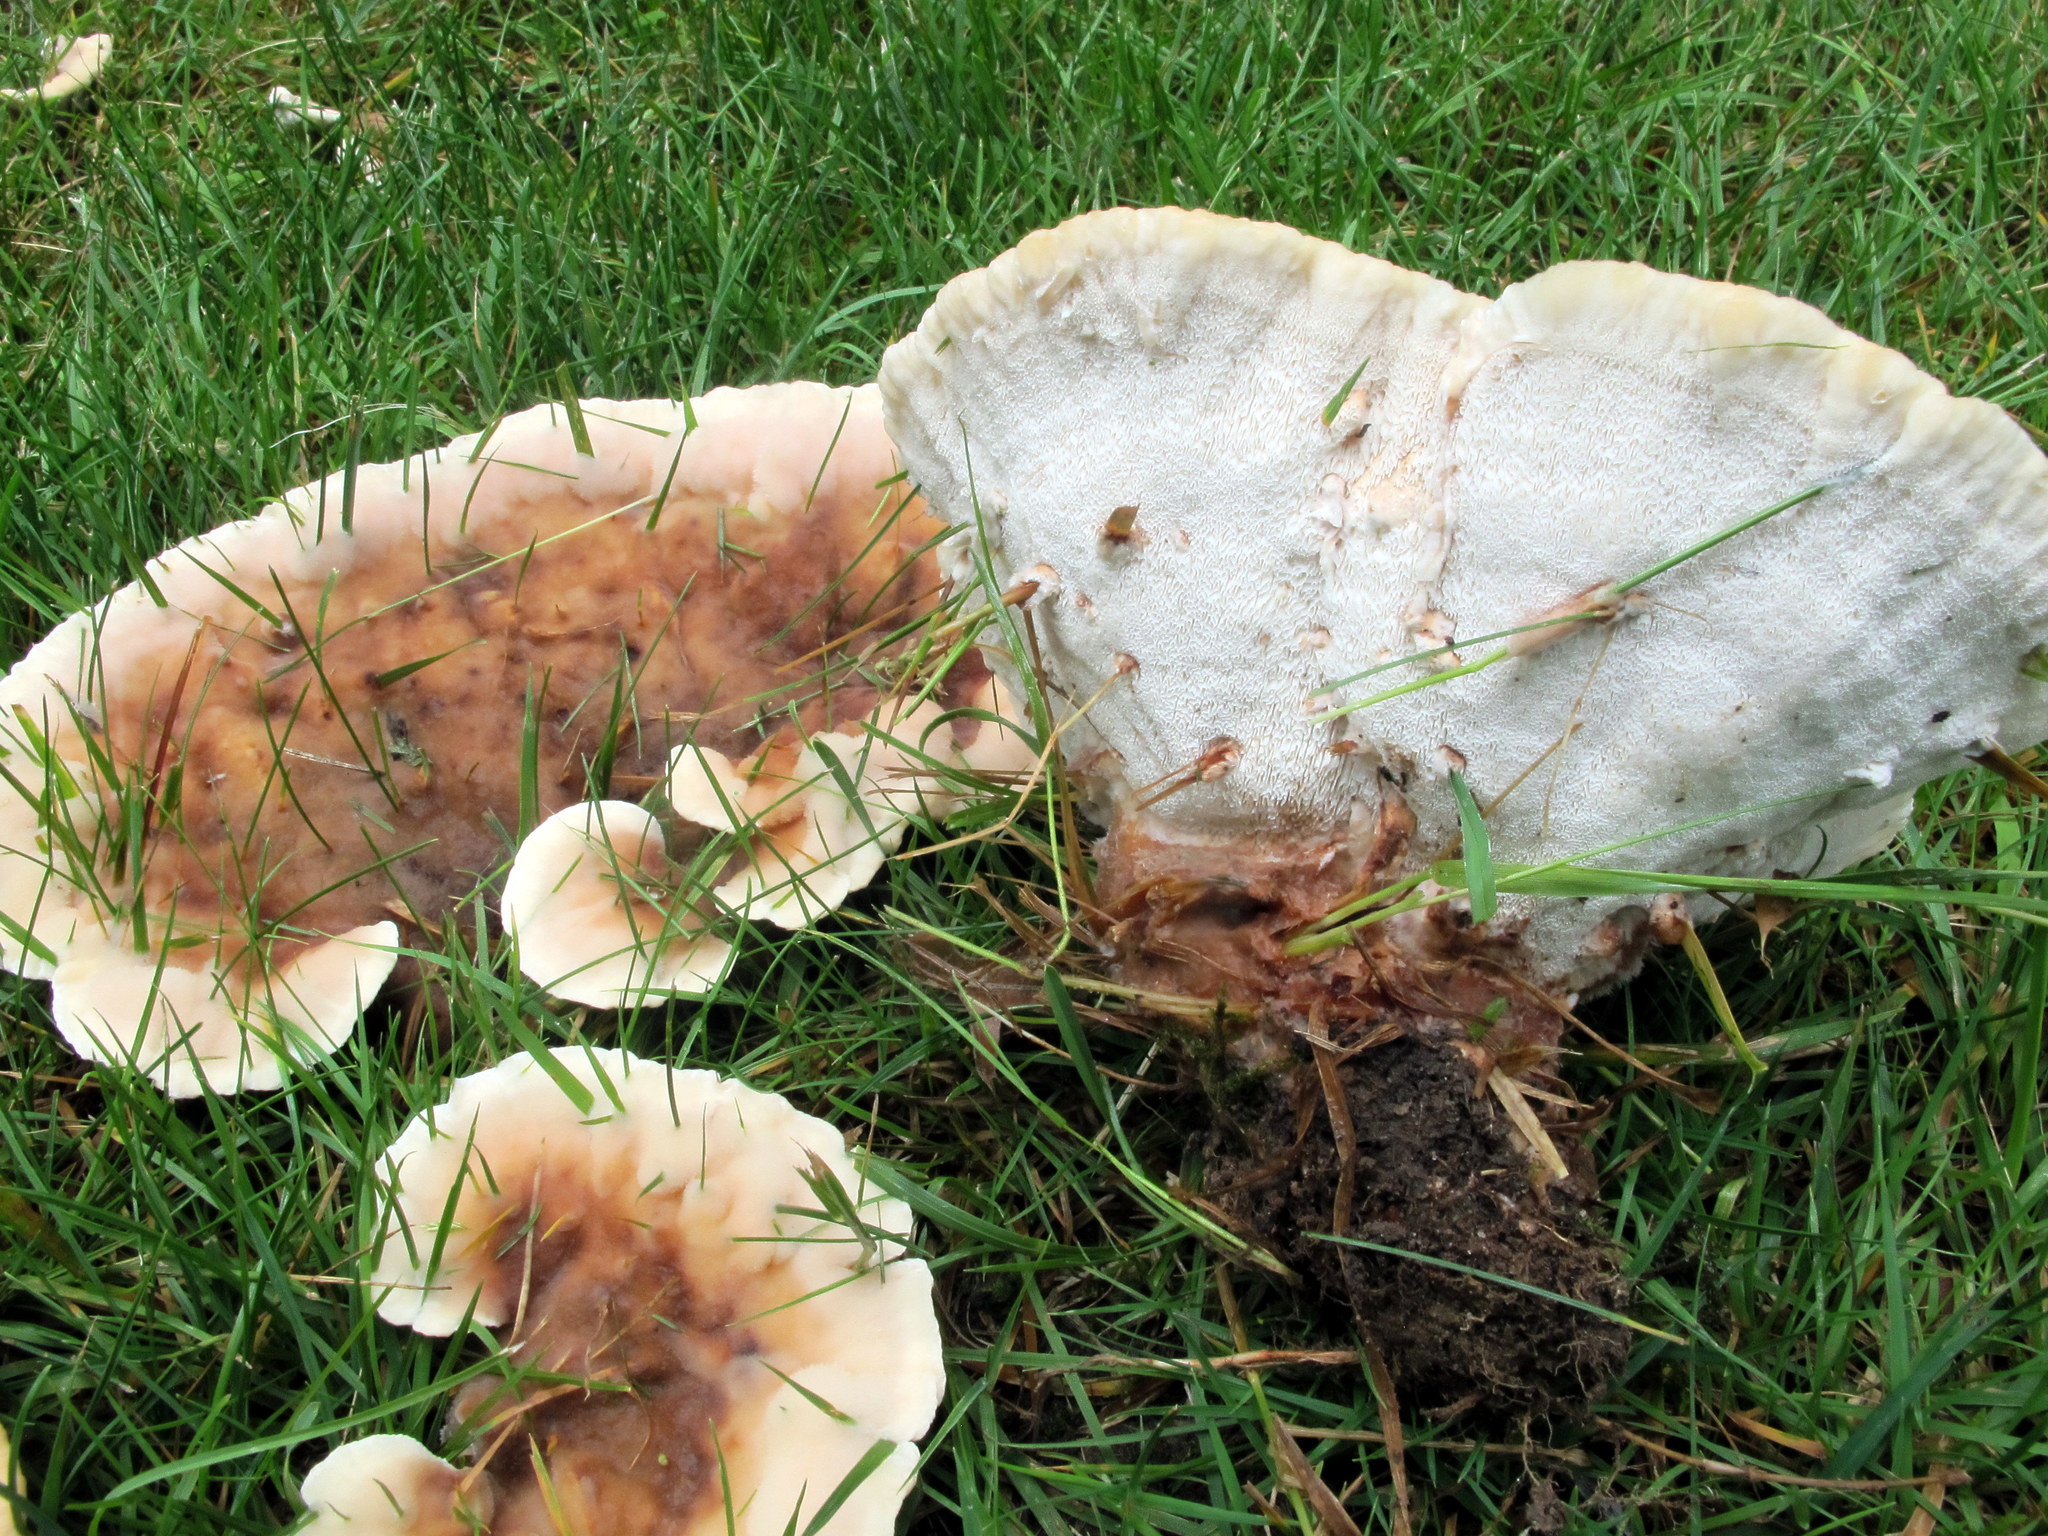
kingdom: Fungi
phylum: Basidiomycota
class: Agaricomycetes
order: Polyporales
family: Podoscyphaceae
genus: Abortiporus
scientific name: Abortiporus biennis
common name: Blushing rosette
